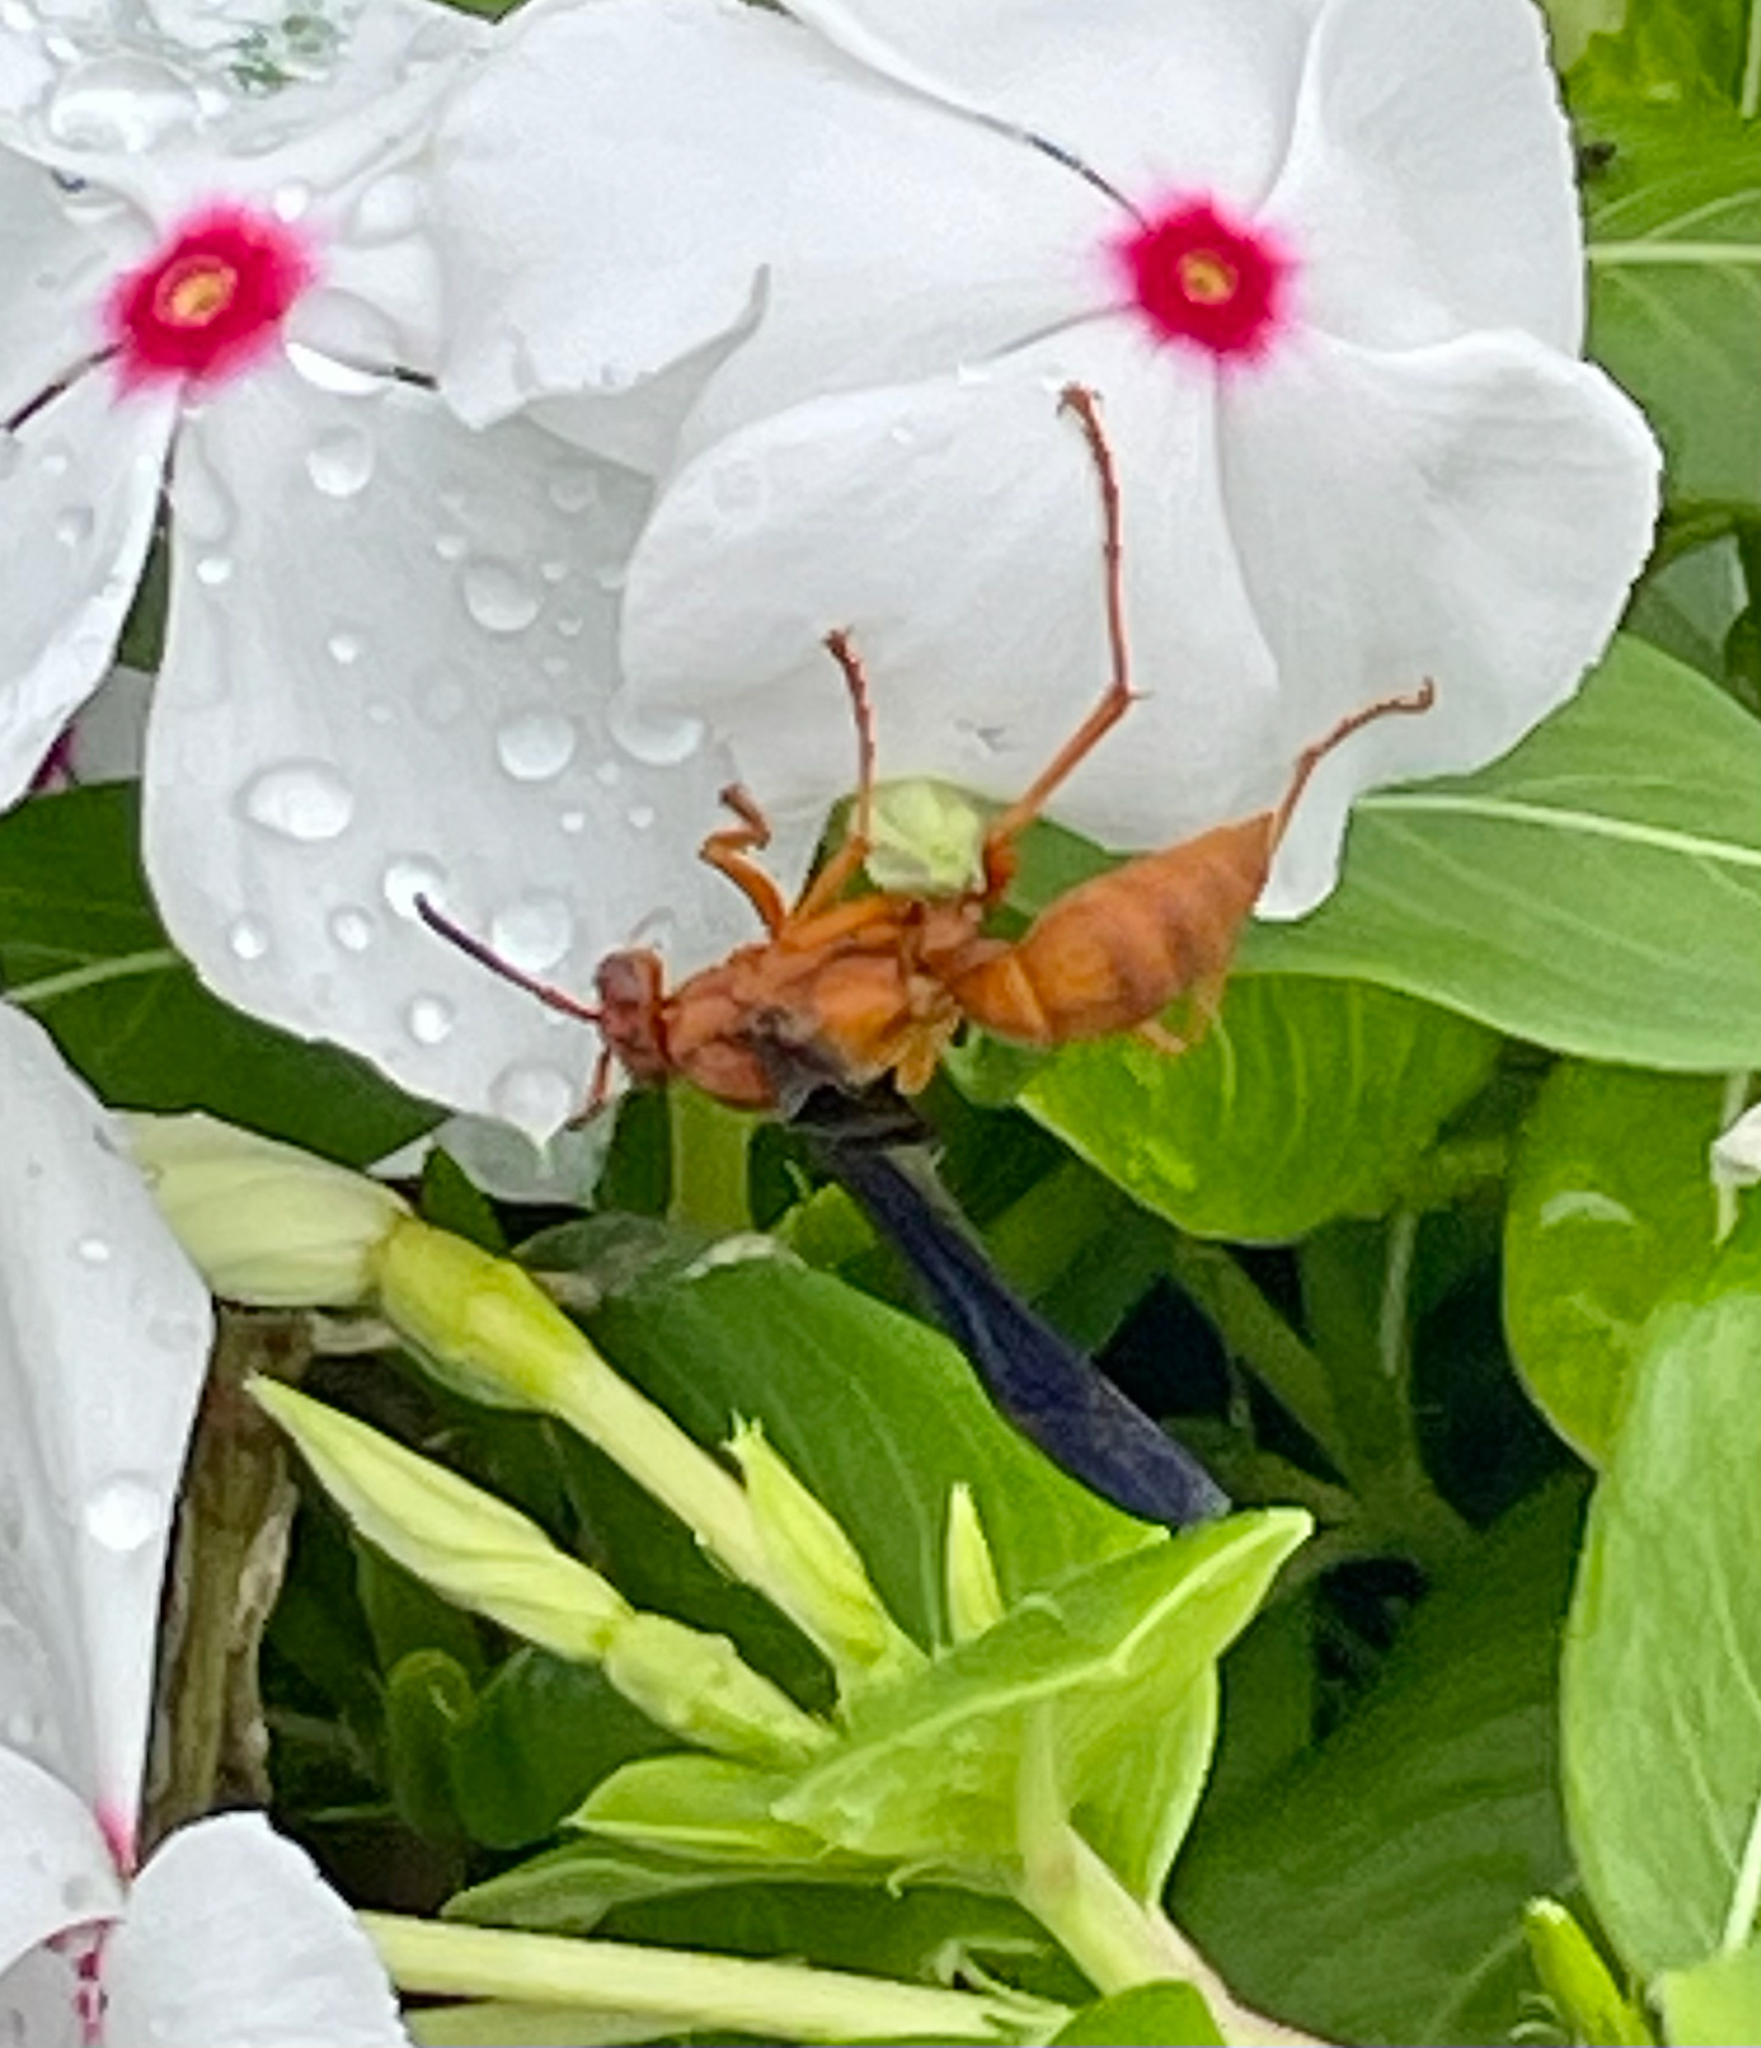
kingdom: Animalia
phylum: Arthropoda
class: Insecta
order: Hymenoptera
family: Vespidae
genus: Fuscopolistes
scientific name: Fuscopolistes
